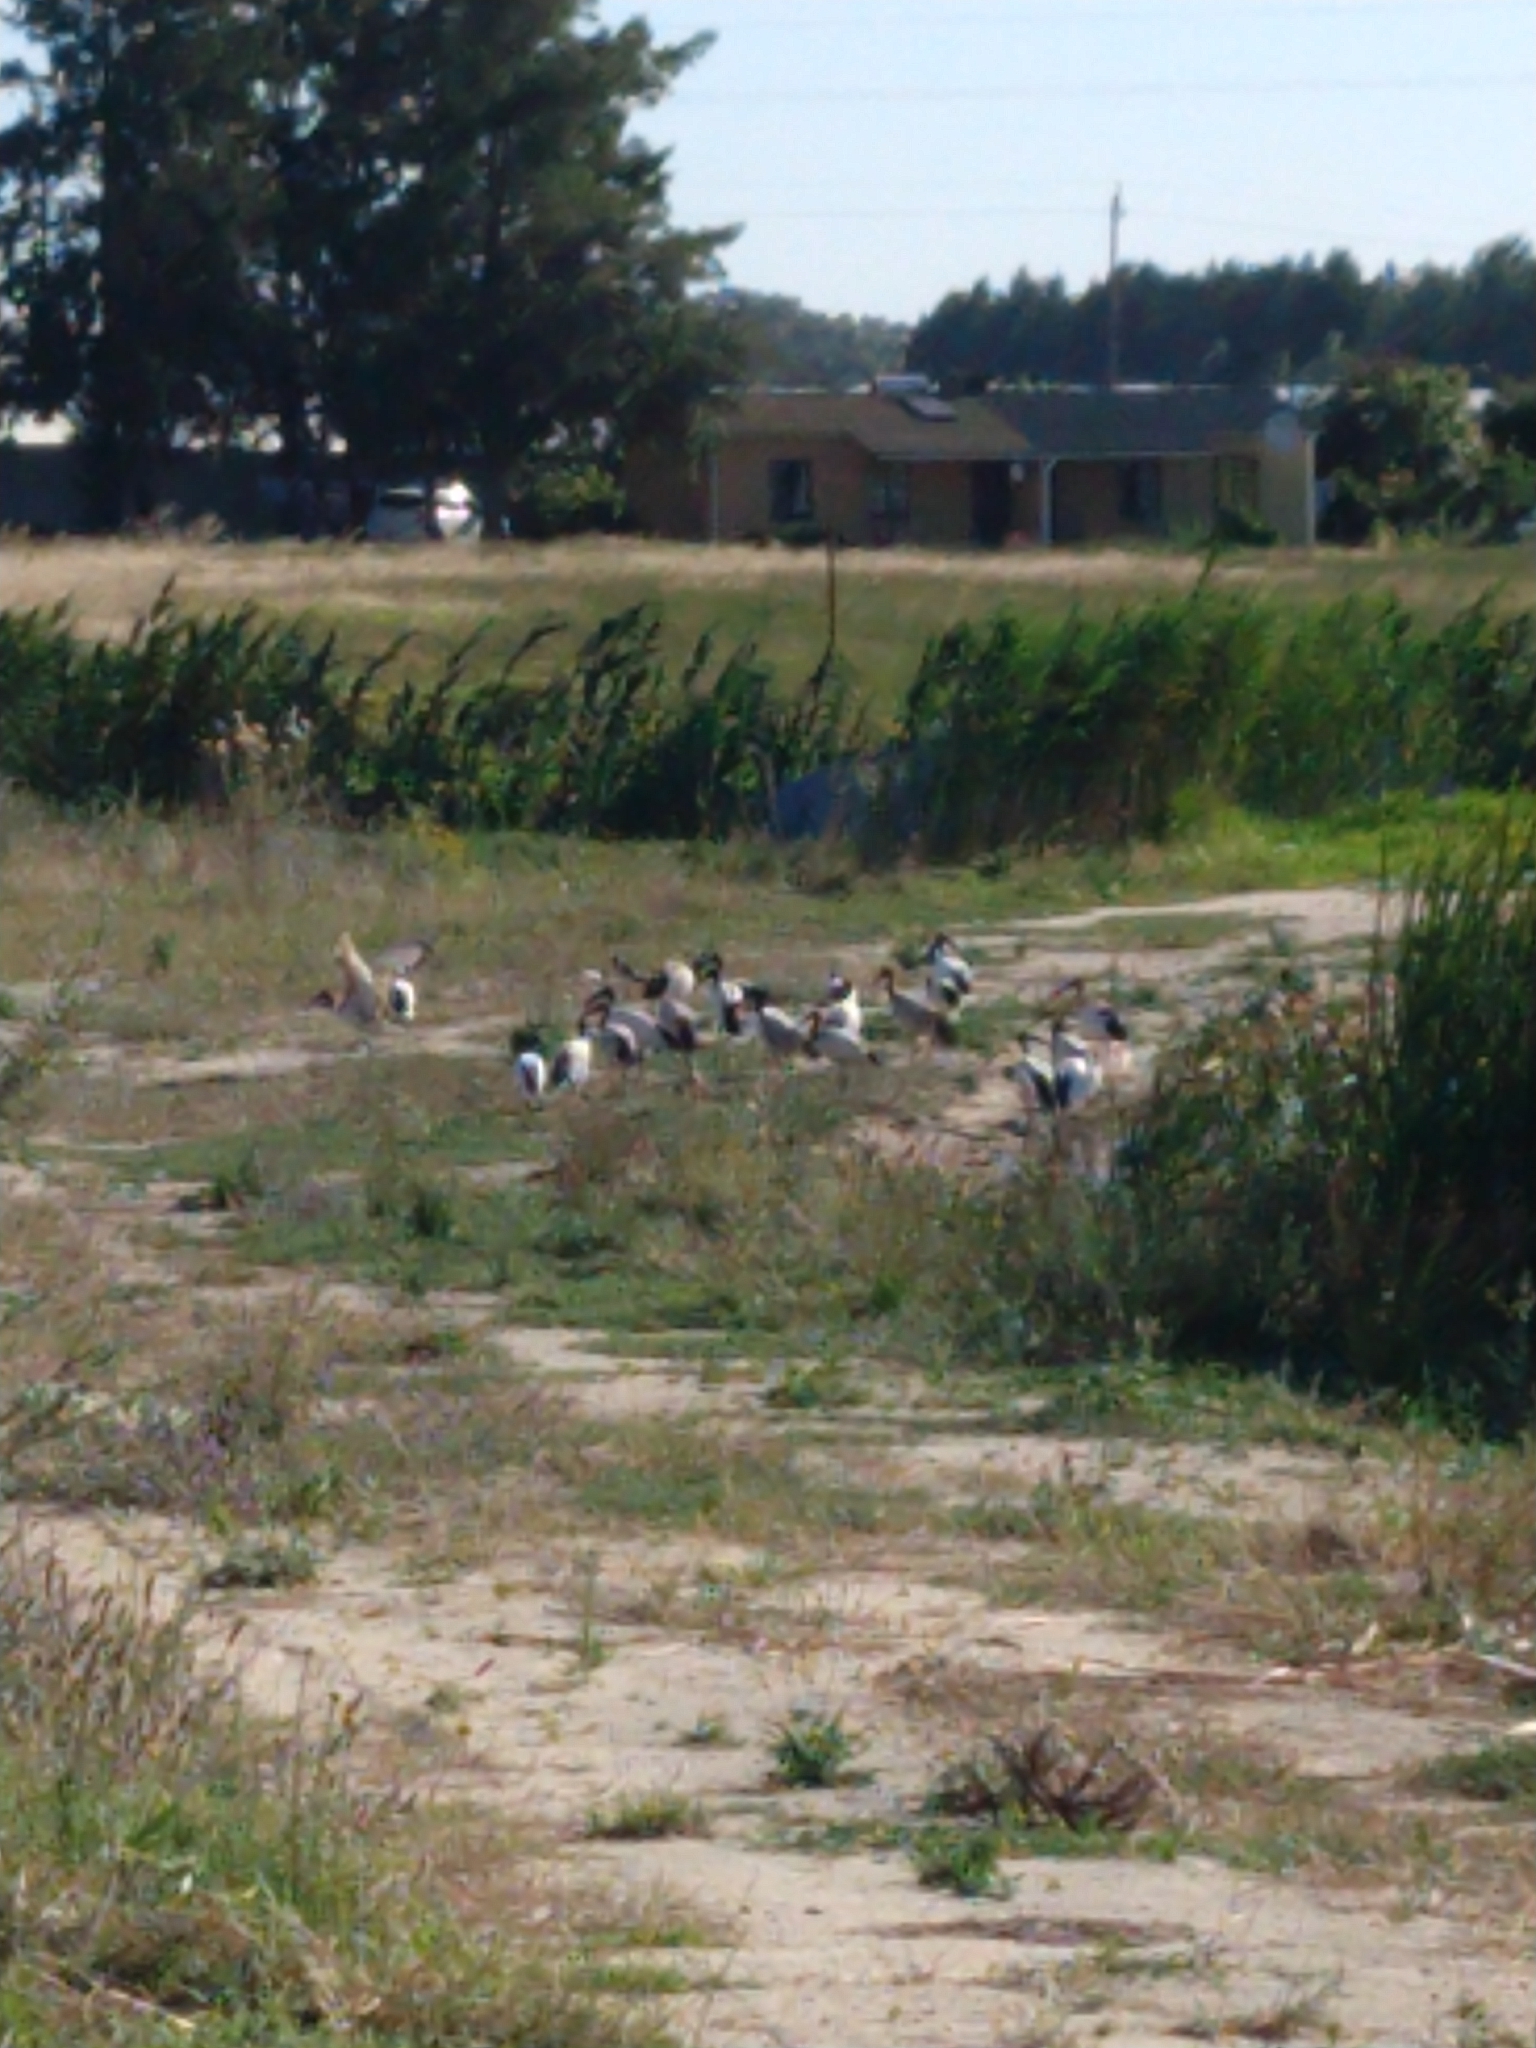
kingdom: Animalia
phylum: Chordata
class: Aves
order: Pelecaniformes
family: Threskiornithidae
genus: Threskiornis
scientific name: Threskiornis aethiopicus
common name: Sacred ibis
